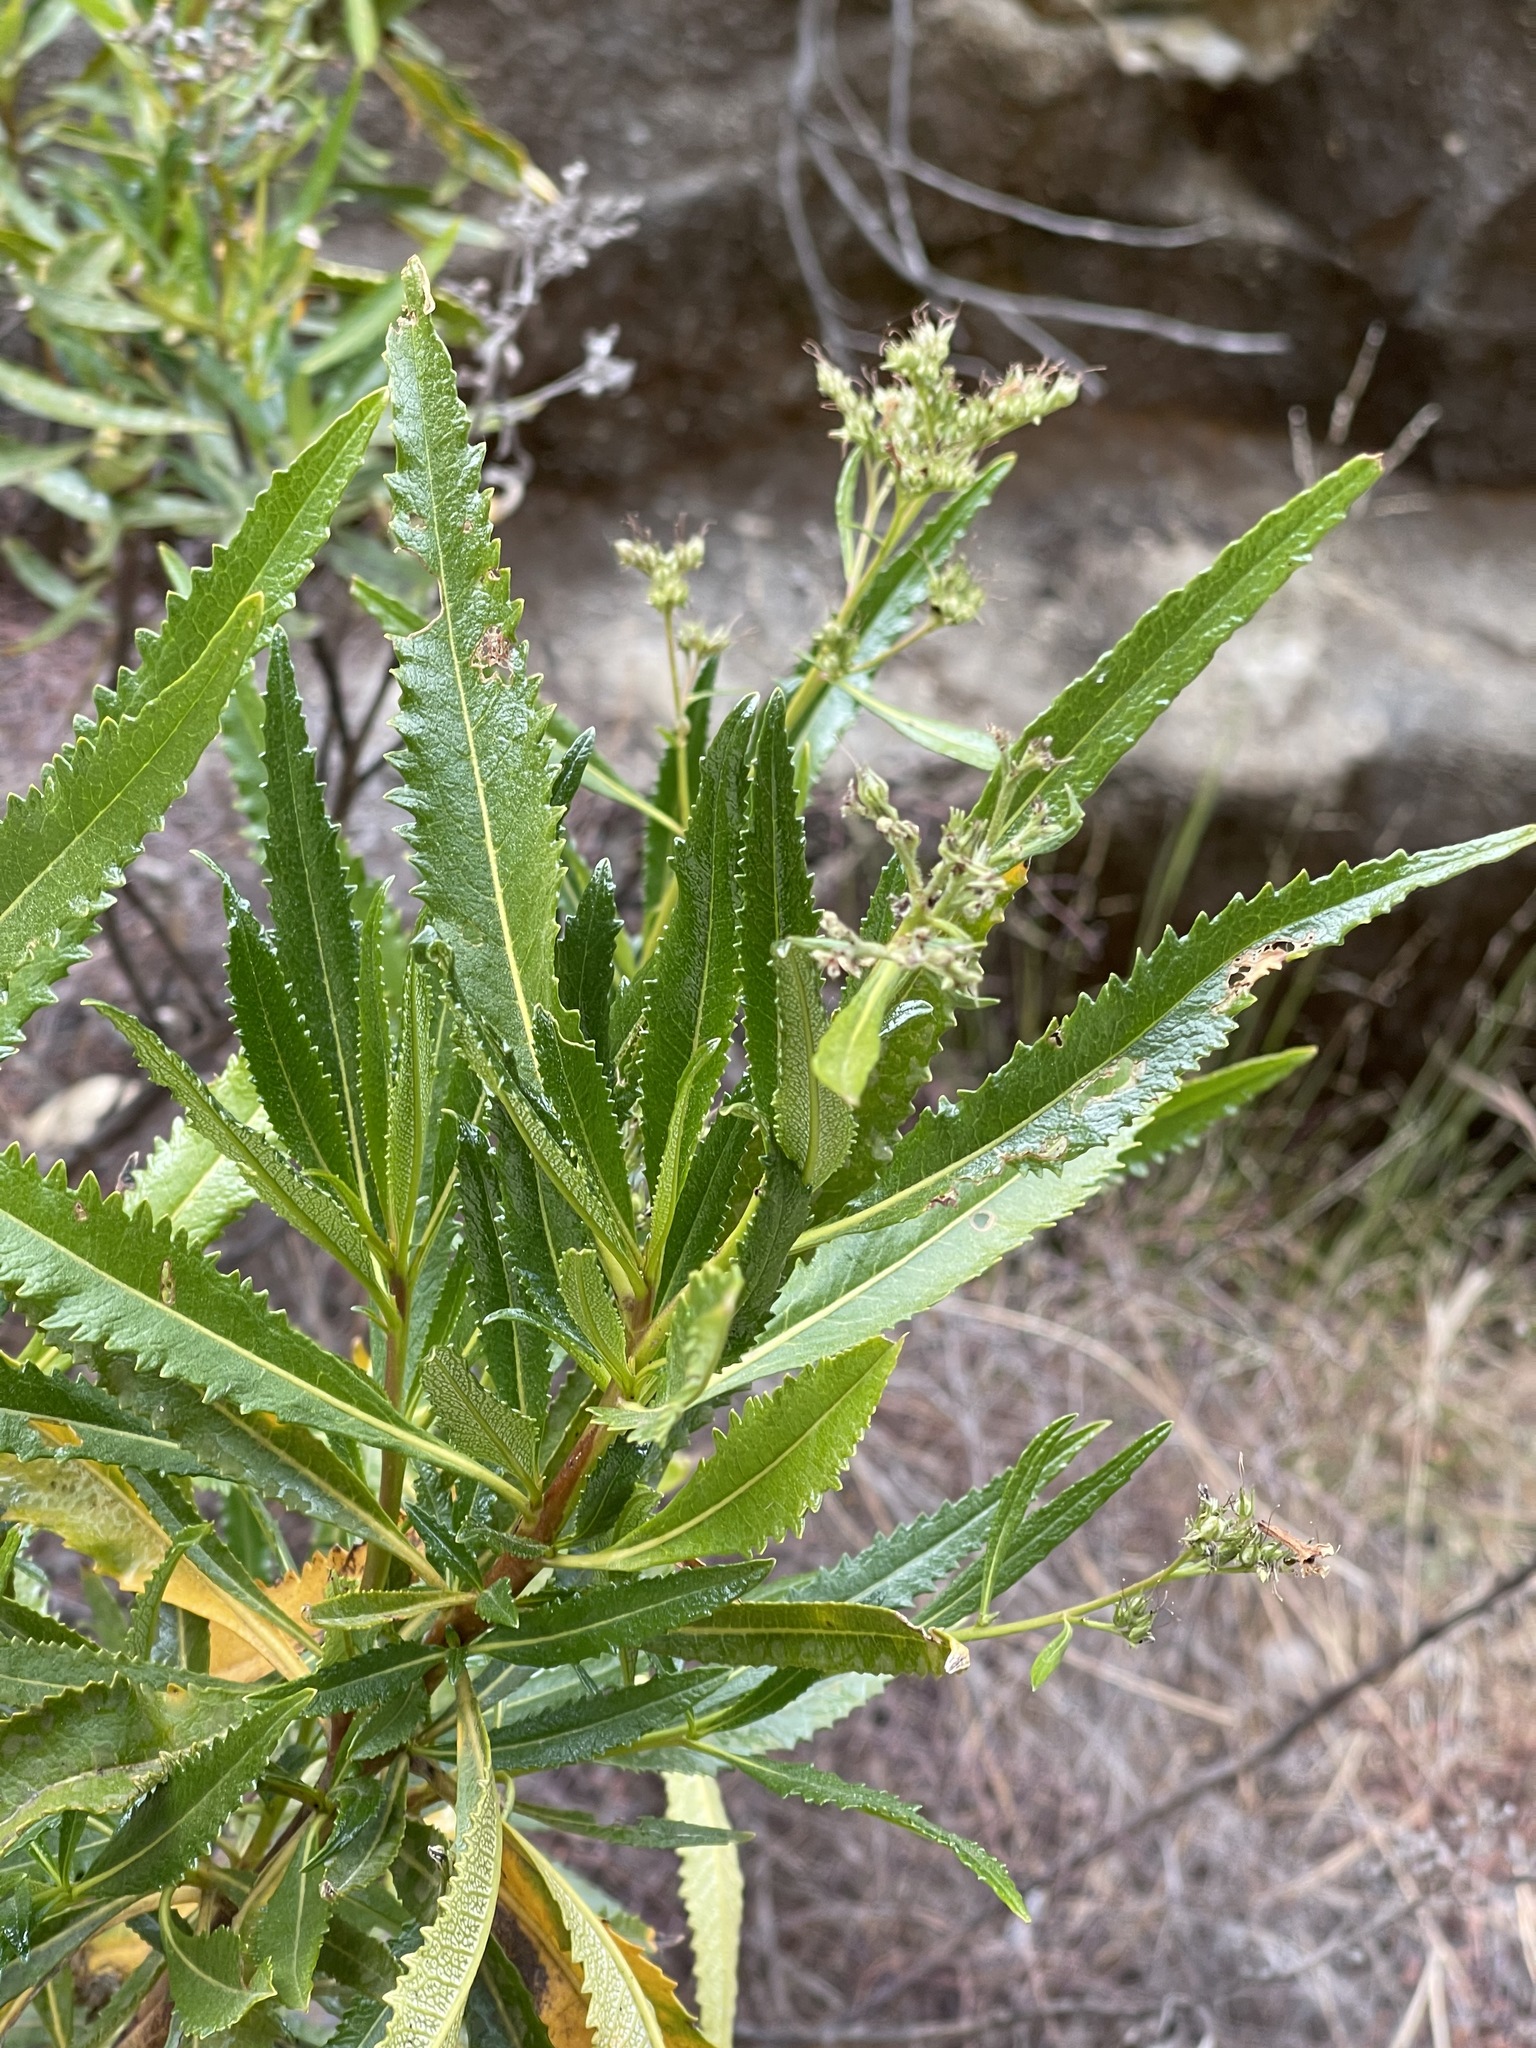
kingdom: Plantae
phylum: Tracheophyta
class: Magnoliopsida
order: Boraginales
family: Namaceae
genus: Eriodictyon
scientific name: Eriodictyon californicum
